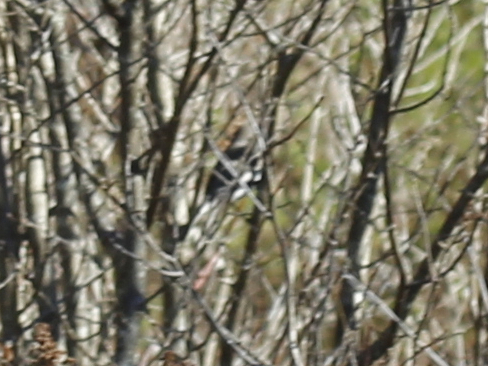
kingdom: Animalia
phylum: Chordata
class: Aves
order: Passeriformes
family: Passerellidae
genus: Junco
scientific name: Junco hyemalis
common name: Dark-eyed junco
